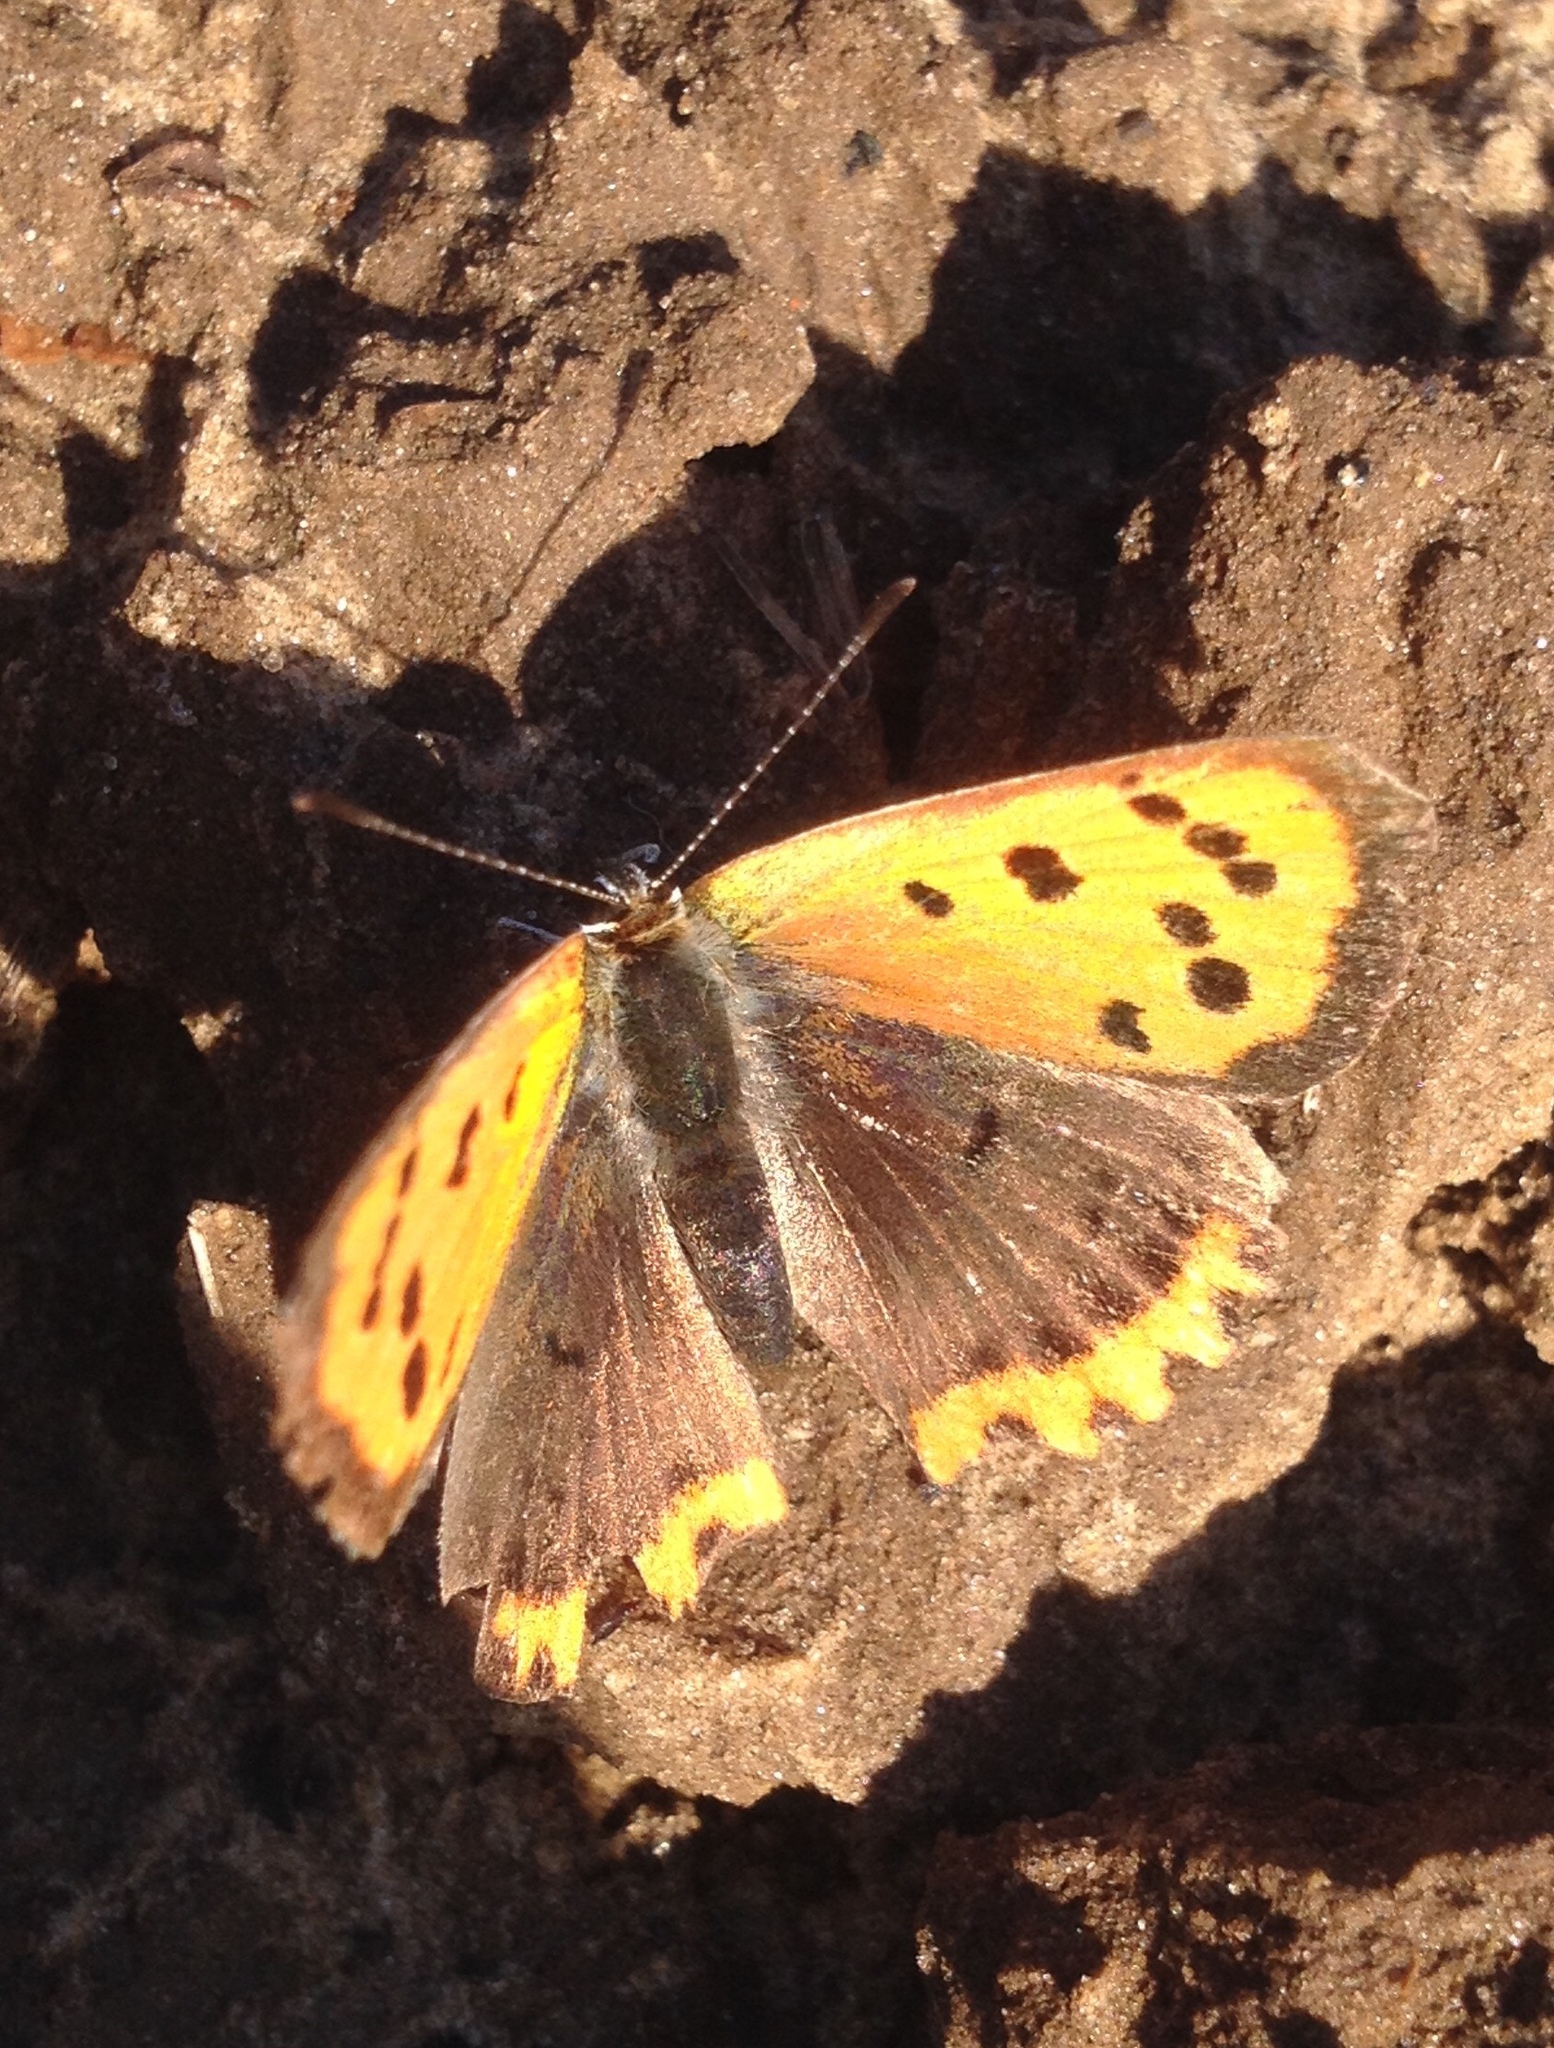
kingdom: Animalia
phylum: Arthropoda
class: Insecta
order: Lepidoptera
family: Lycaenidae
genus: Lycaena
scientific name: Lycaena phlaeas
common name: Small copper
